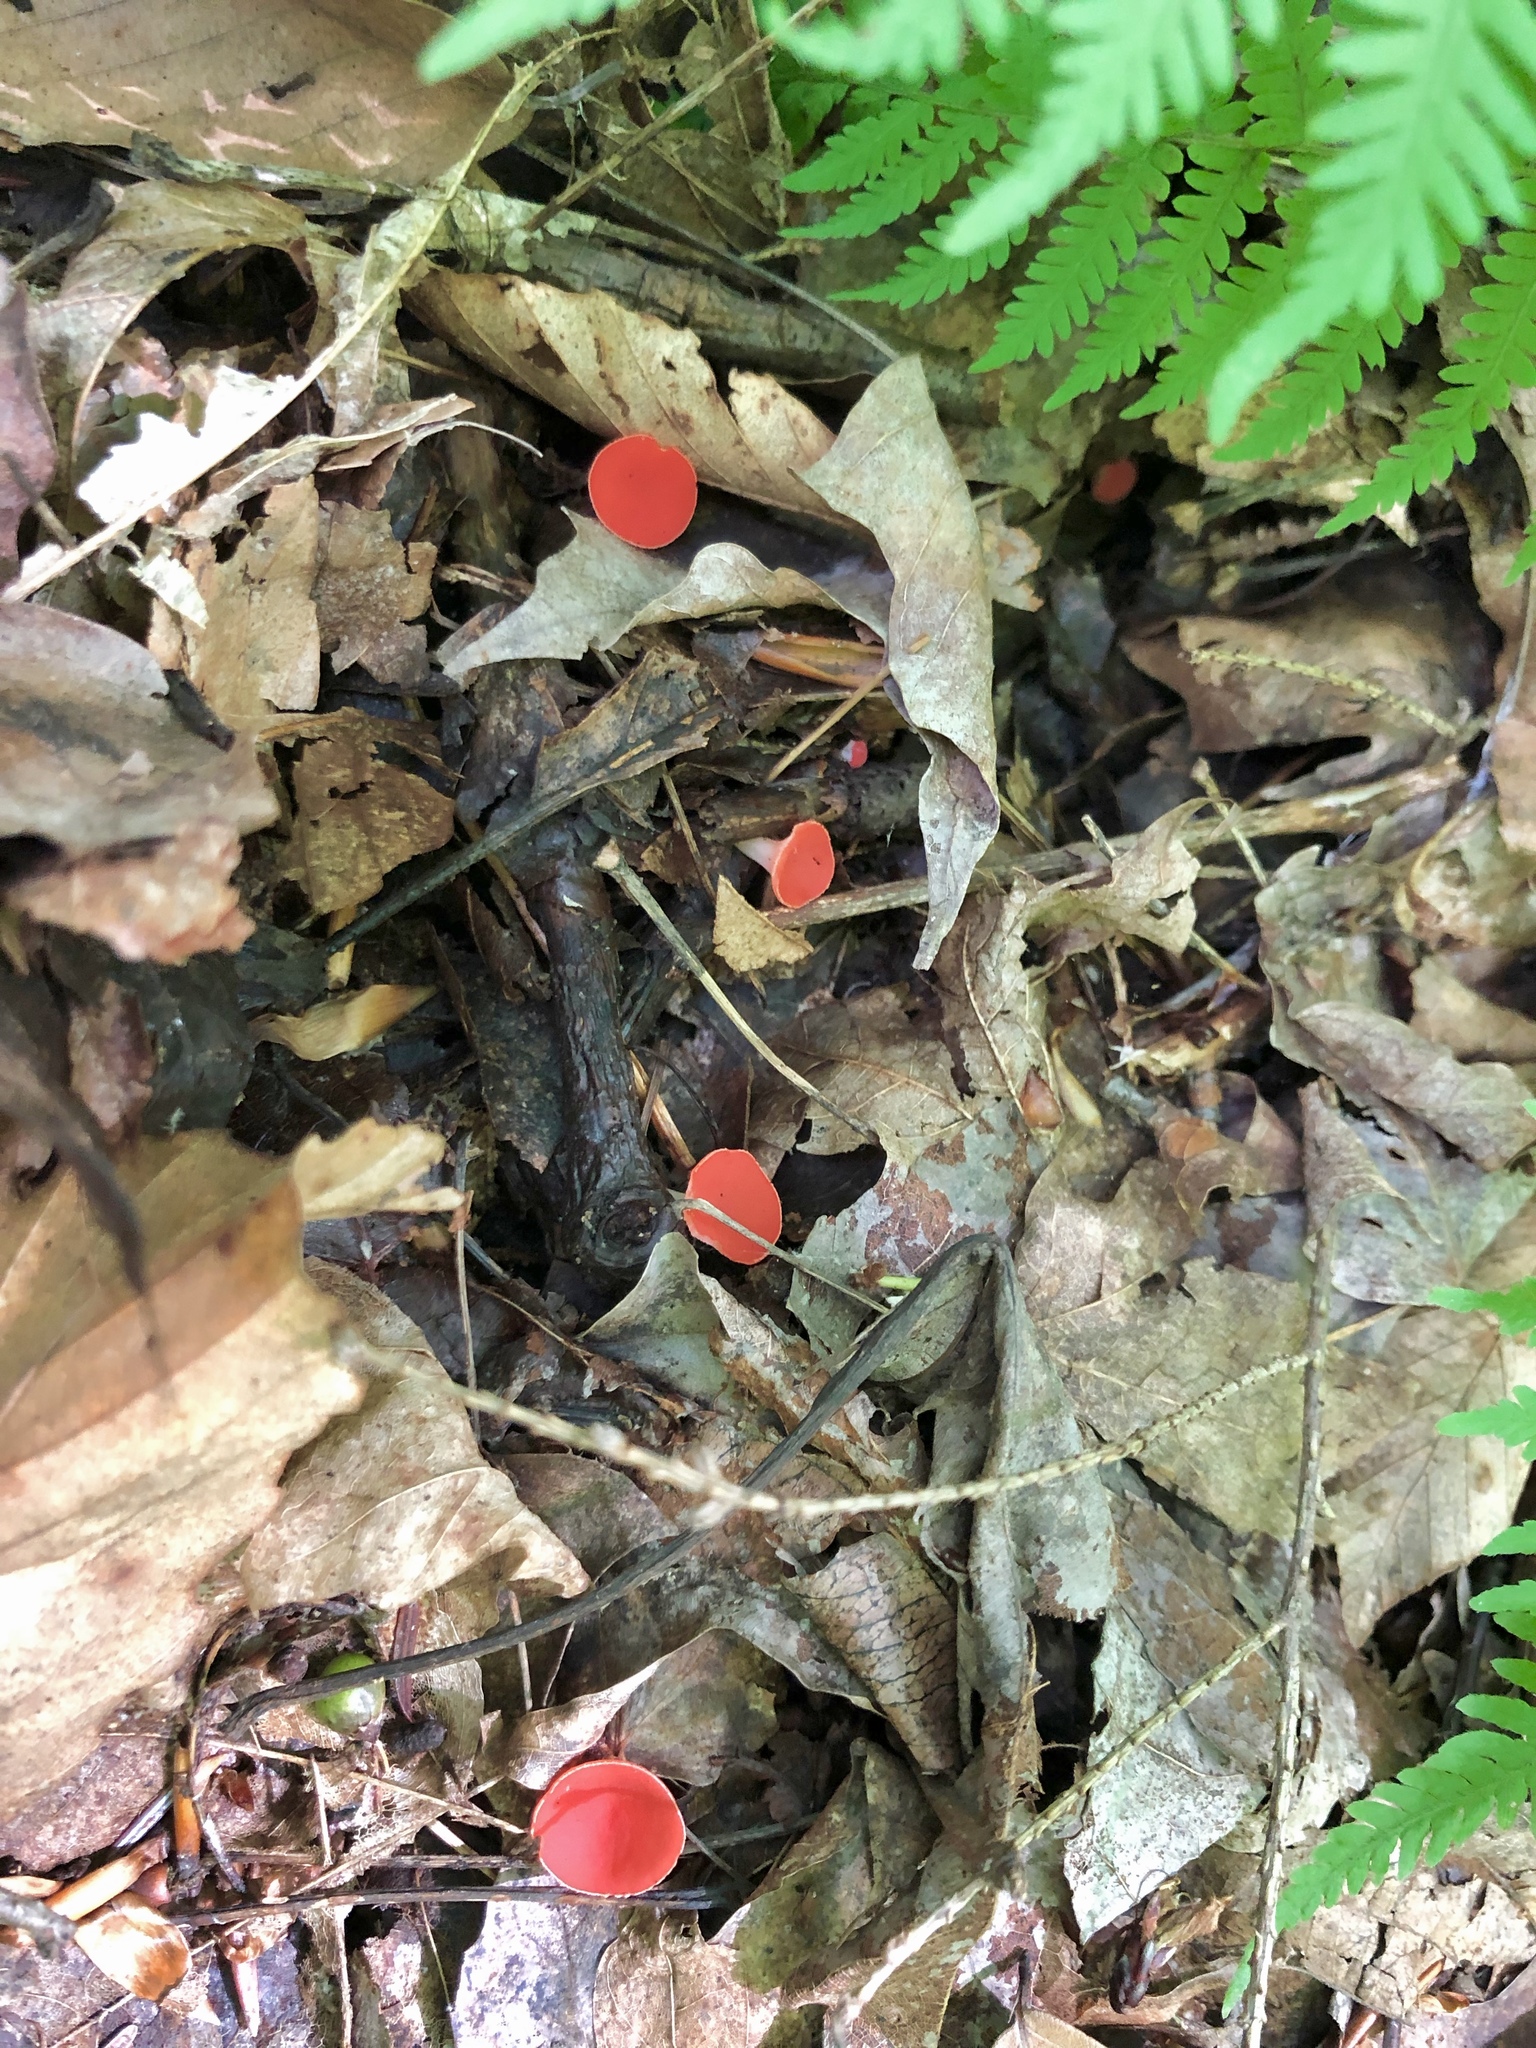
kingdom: Fungi
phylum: Ascomycota
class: Pezizomycetes
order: Pezizales
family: Sarcoscyphaceae
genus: Sarcoscypha
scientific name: Sarcoscypha occidentalis
